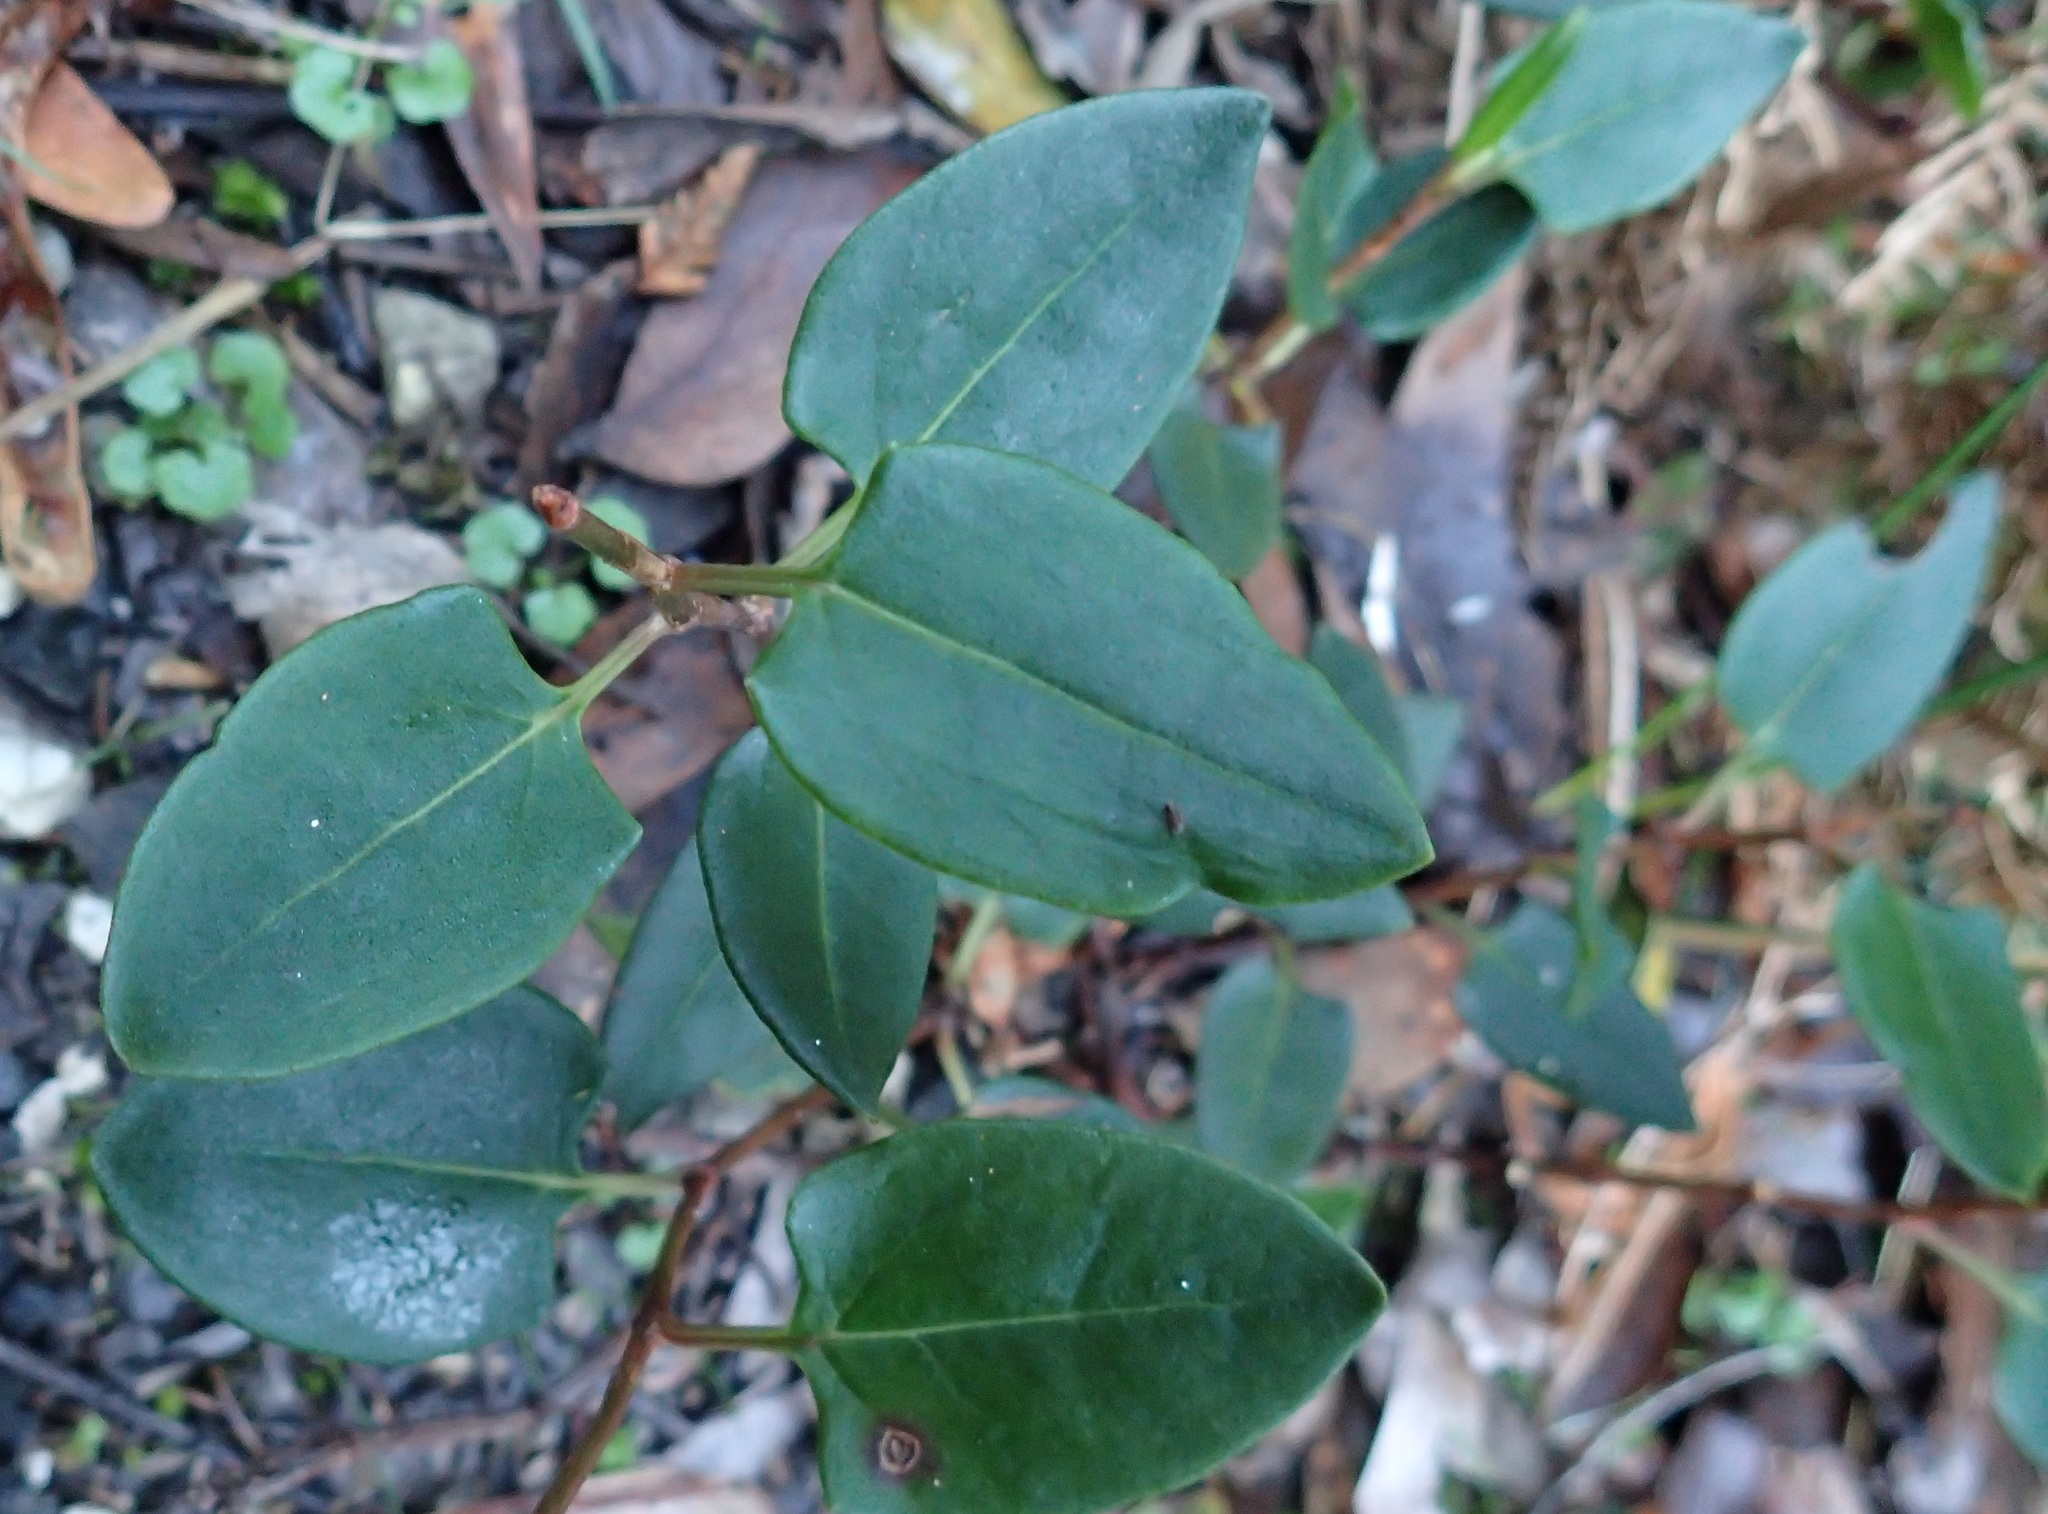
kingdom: Plantae
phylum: Tracheophyta
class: Magnoliopsida
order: Caryophyllales
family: Polygonaceae
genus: Muehlenbeckia
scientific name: Muehlenbeckia gunnii
